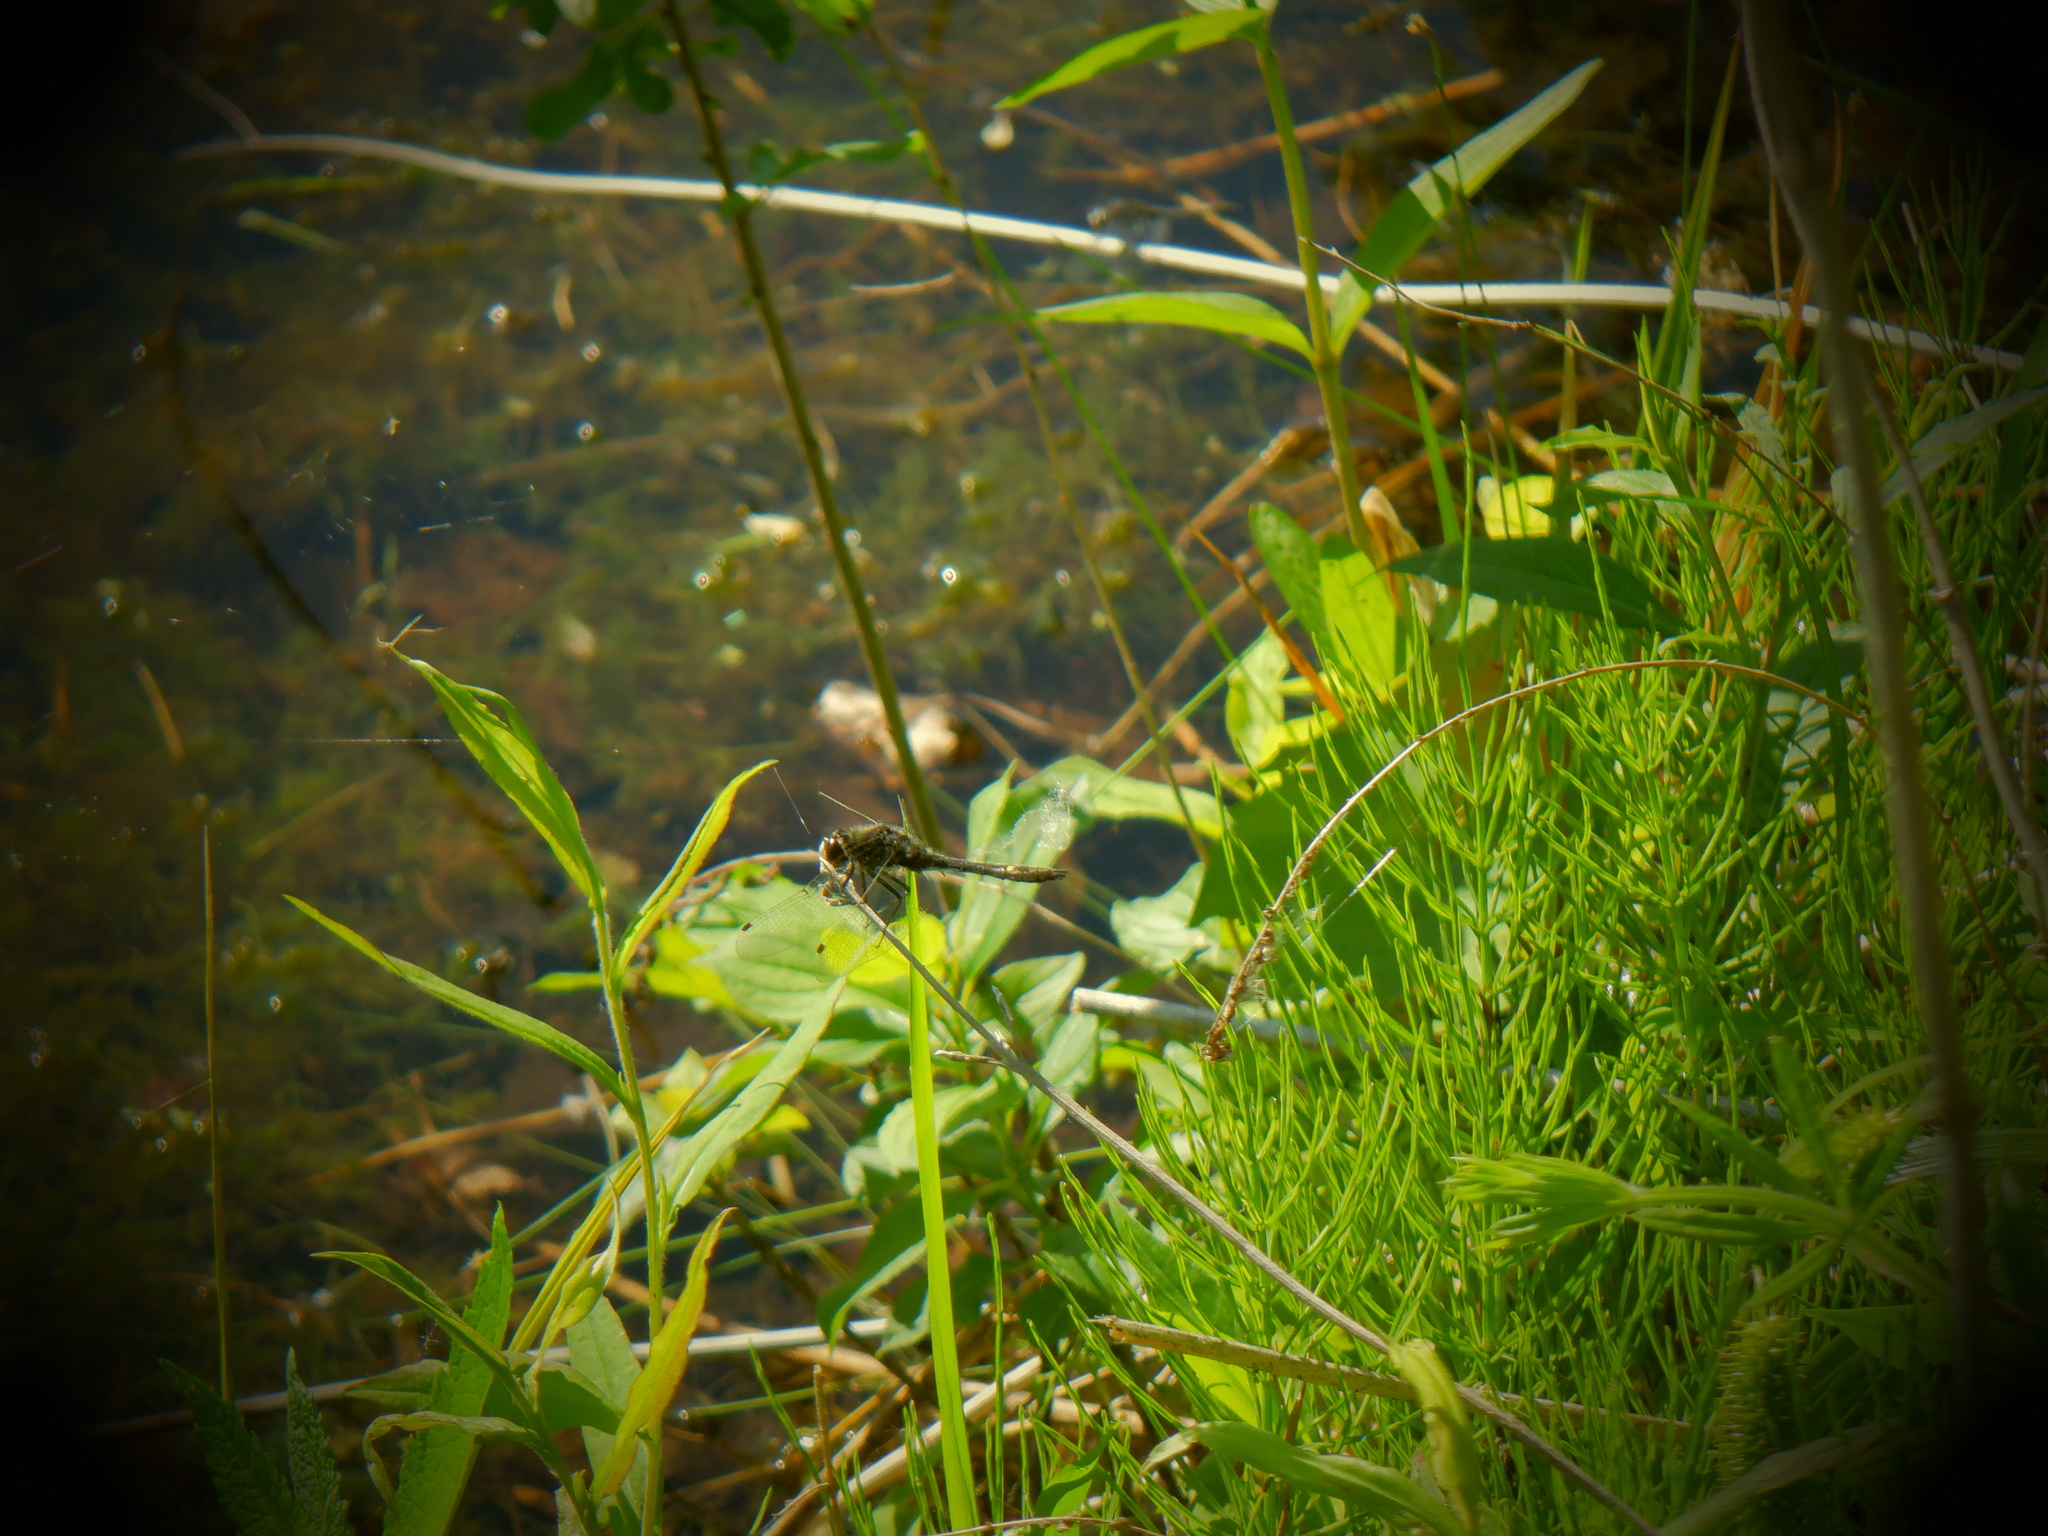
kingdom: Animalia
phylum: Arthropoda
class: Insecta
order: Odonata
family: Libellulidae
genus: Leucorrhinia
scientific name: Leucorrhinia intacta
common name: Dot-tailed whiteface
